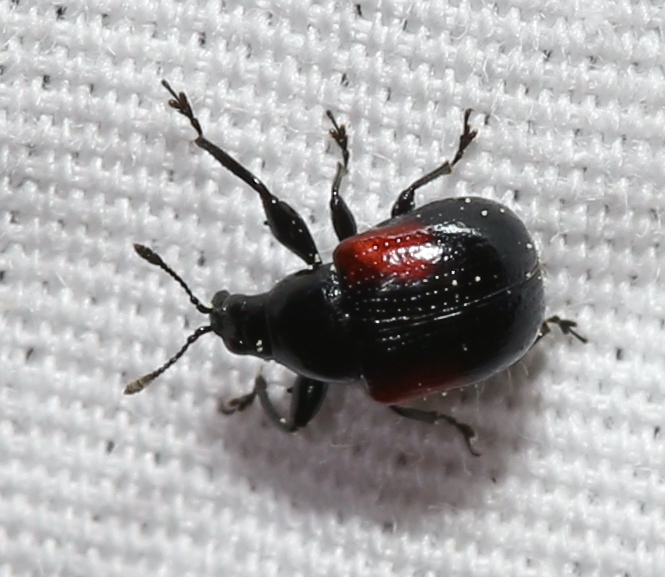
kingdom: Animalia
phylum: Arthropoda
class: Insecta
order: Coleoptera
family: Attelabidae
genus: Attelabus
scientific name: Attelabus bipustulatus
